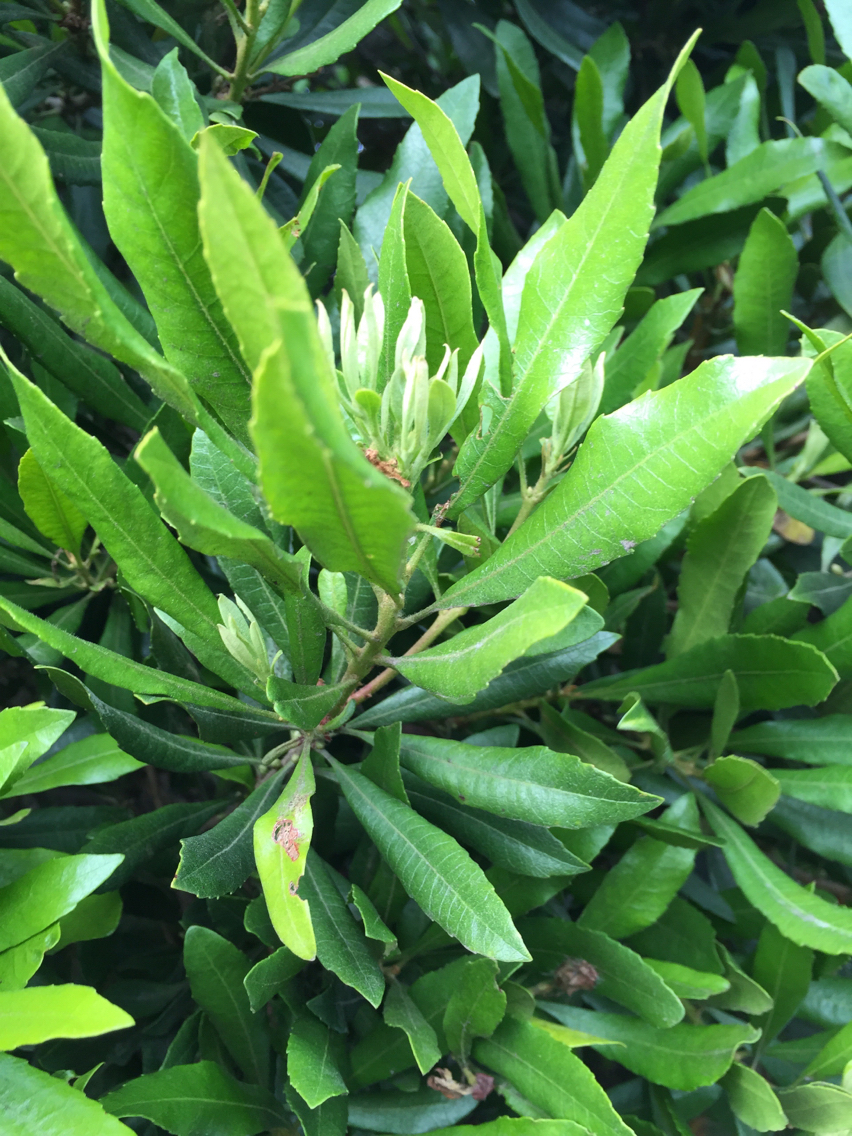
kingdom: Plantae
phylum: Tracheophyta
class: Magnoliopsida
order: Fagales
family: Myricaceae
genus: Morella
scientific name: Morella californica
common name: California wax-myrtle
